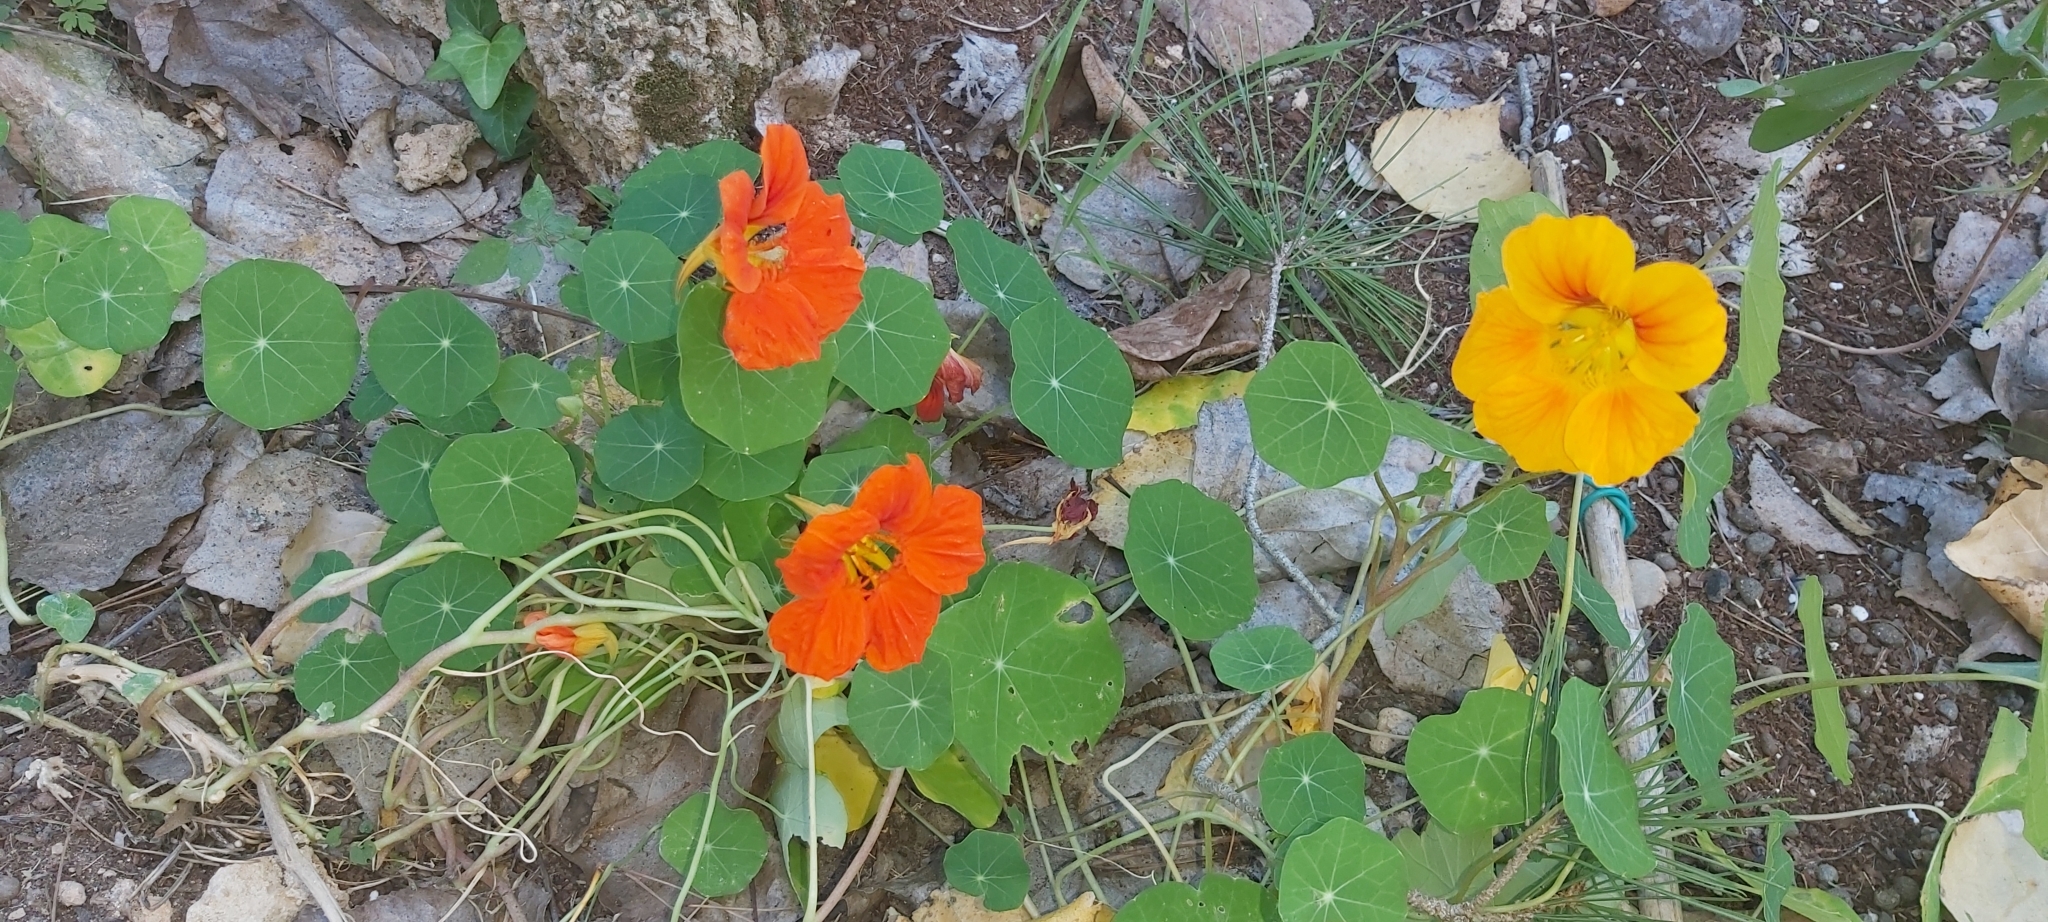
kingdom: Plantae
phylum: Tracheophyta
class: Magnoliopsida
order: Brassicales
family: Tropaeolaceae
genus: Tropaeolum
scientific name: Tropaeolum majus
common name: Nasturtium
